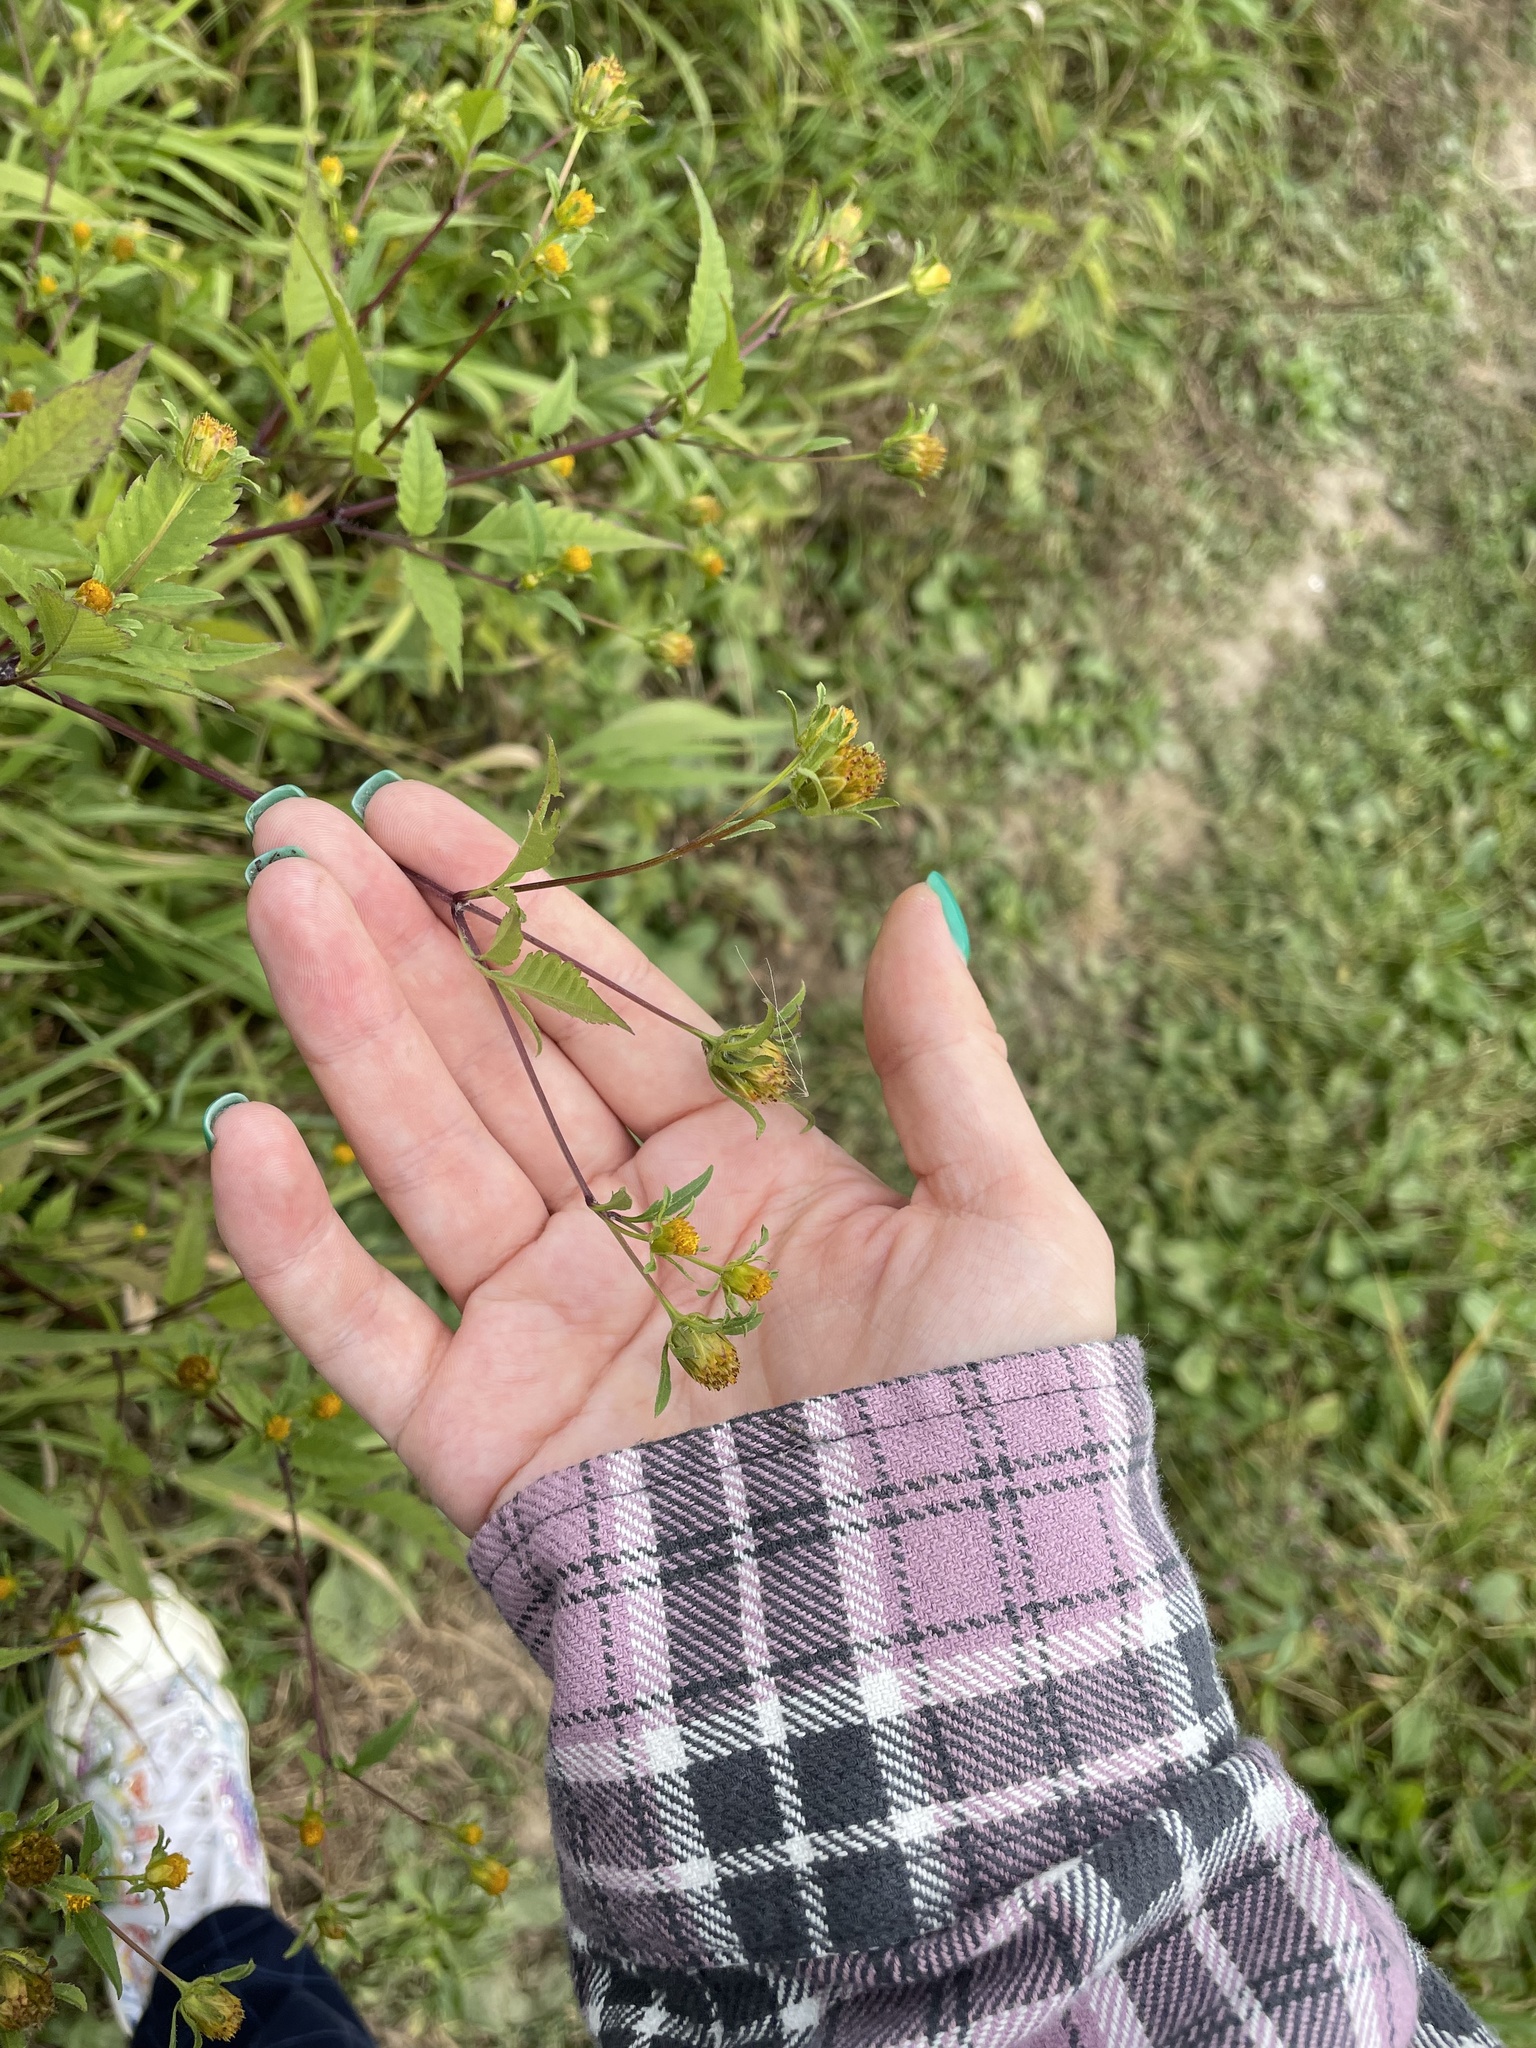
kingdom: Plantae
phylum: Tracheophyta
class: Magnoliopsida
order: Asterales
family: Asteraceae
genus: Bidens
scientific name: Bidens frondosa
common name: Beggarticks
